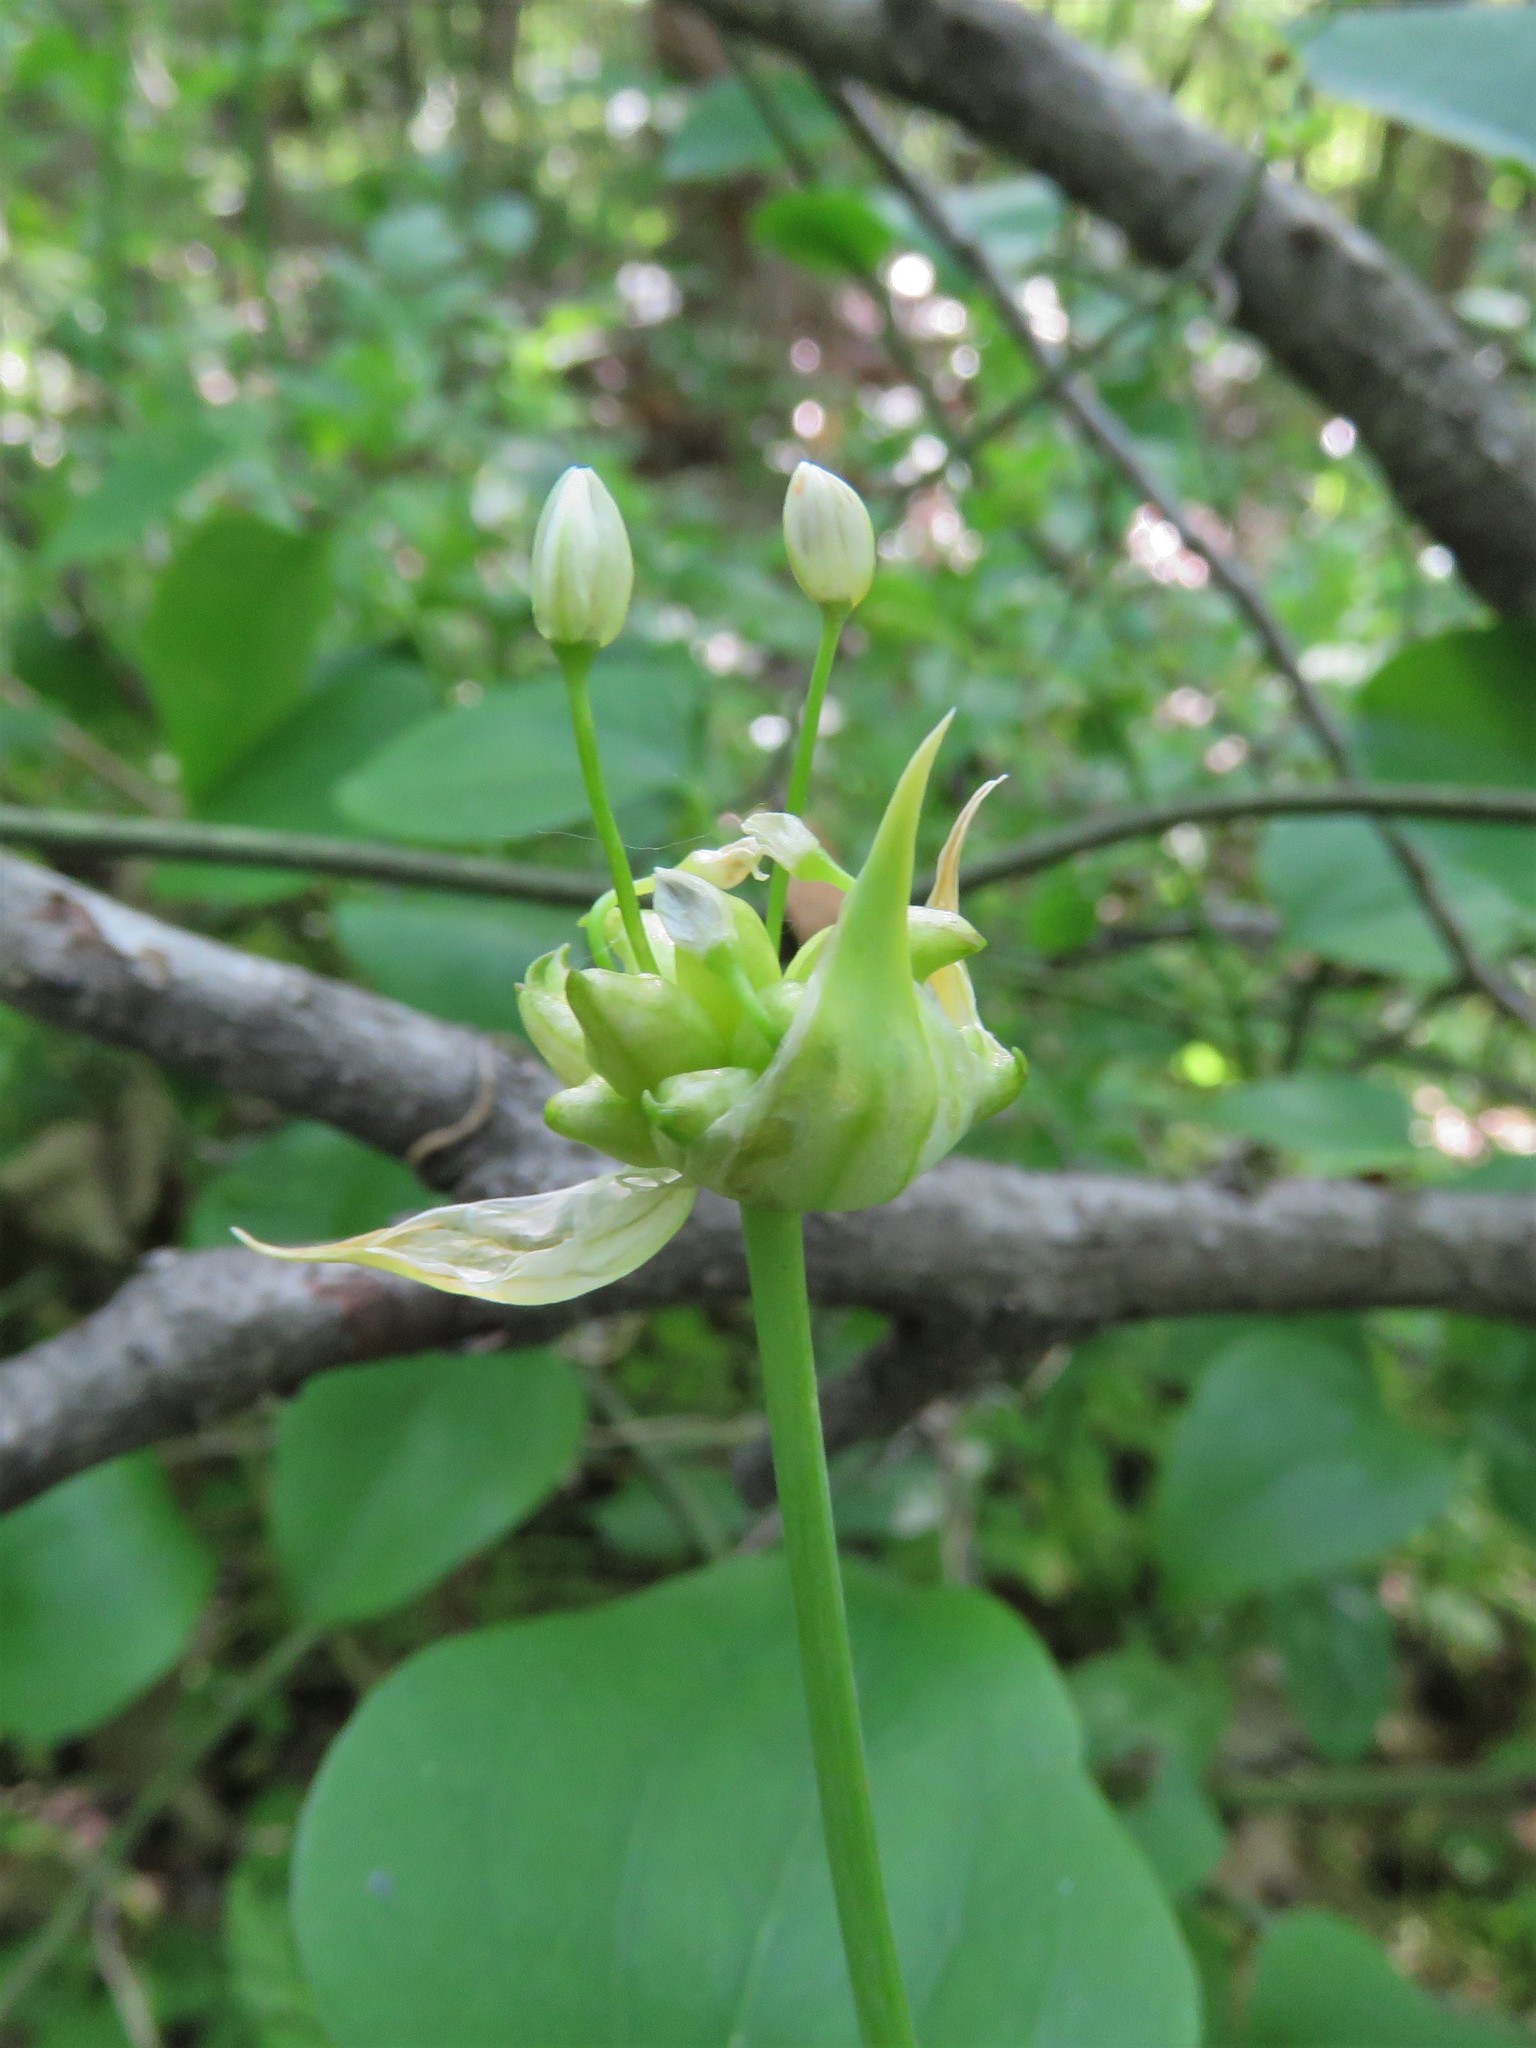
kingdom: Plantae
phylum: Tracheophyta
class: Liliopsida
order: Asparagales
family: Amaryllidaceae
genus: Allium
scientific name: Allium canadense
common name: Meadow garlic
